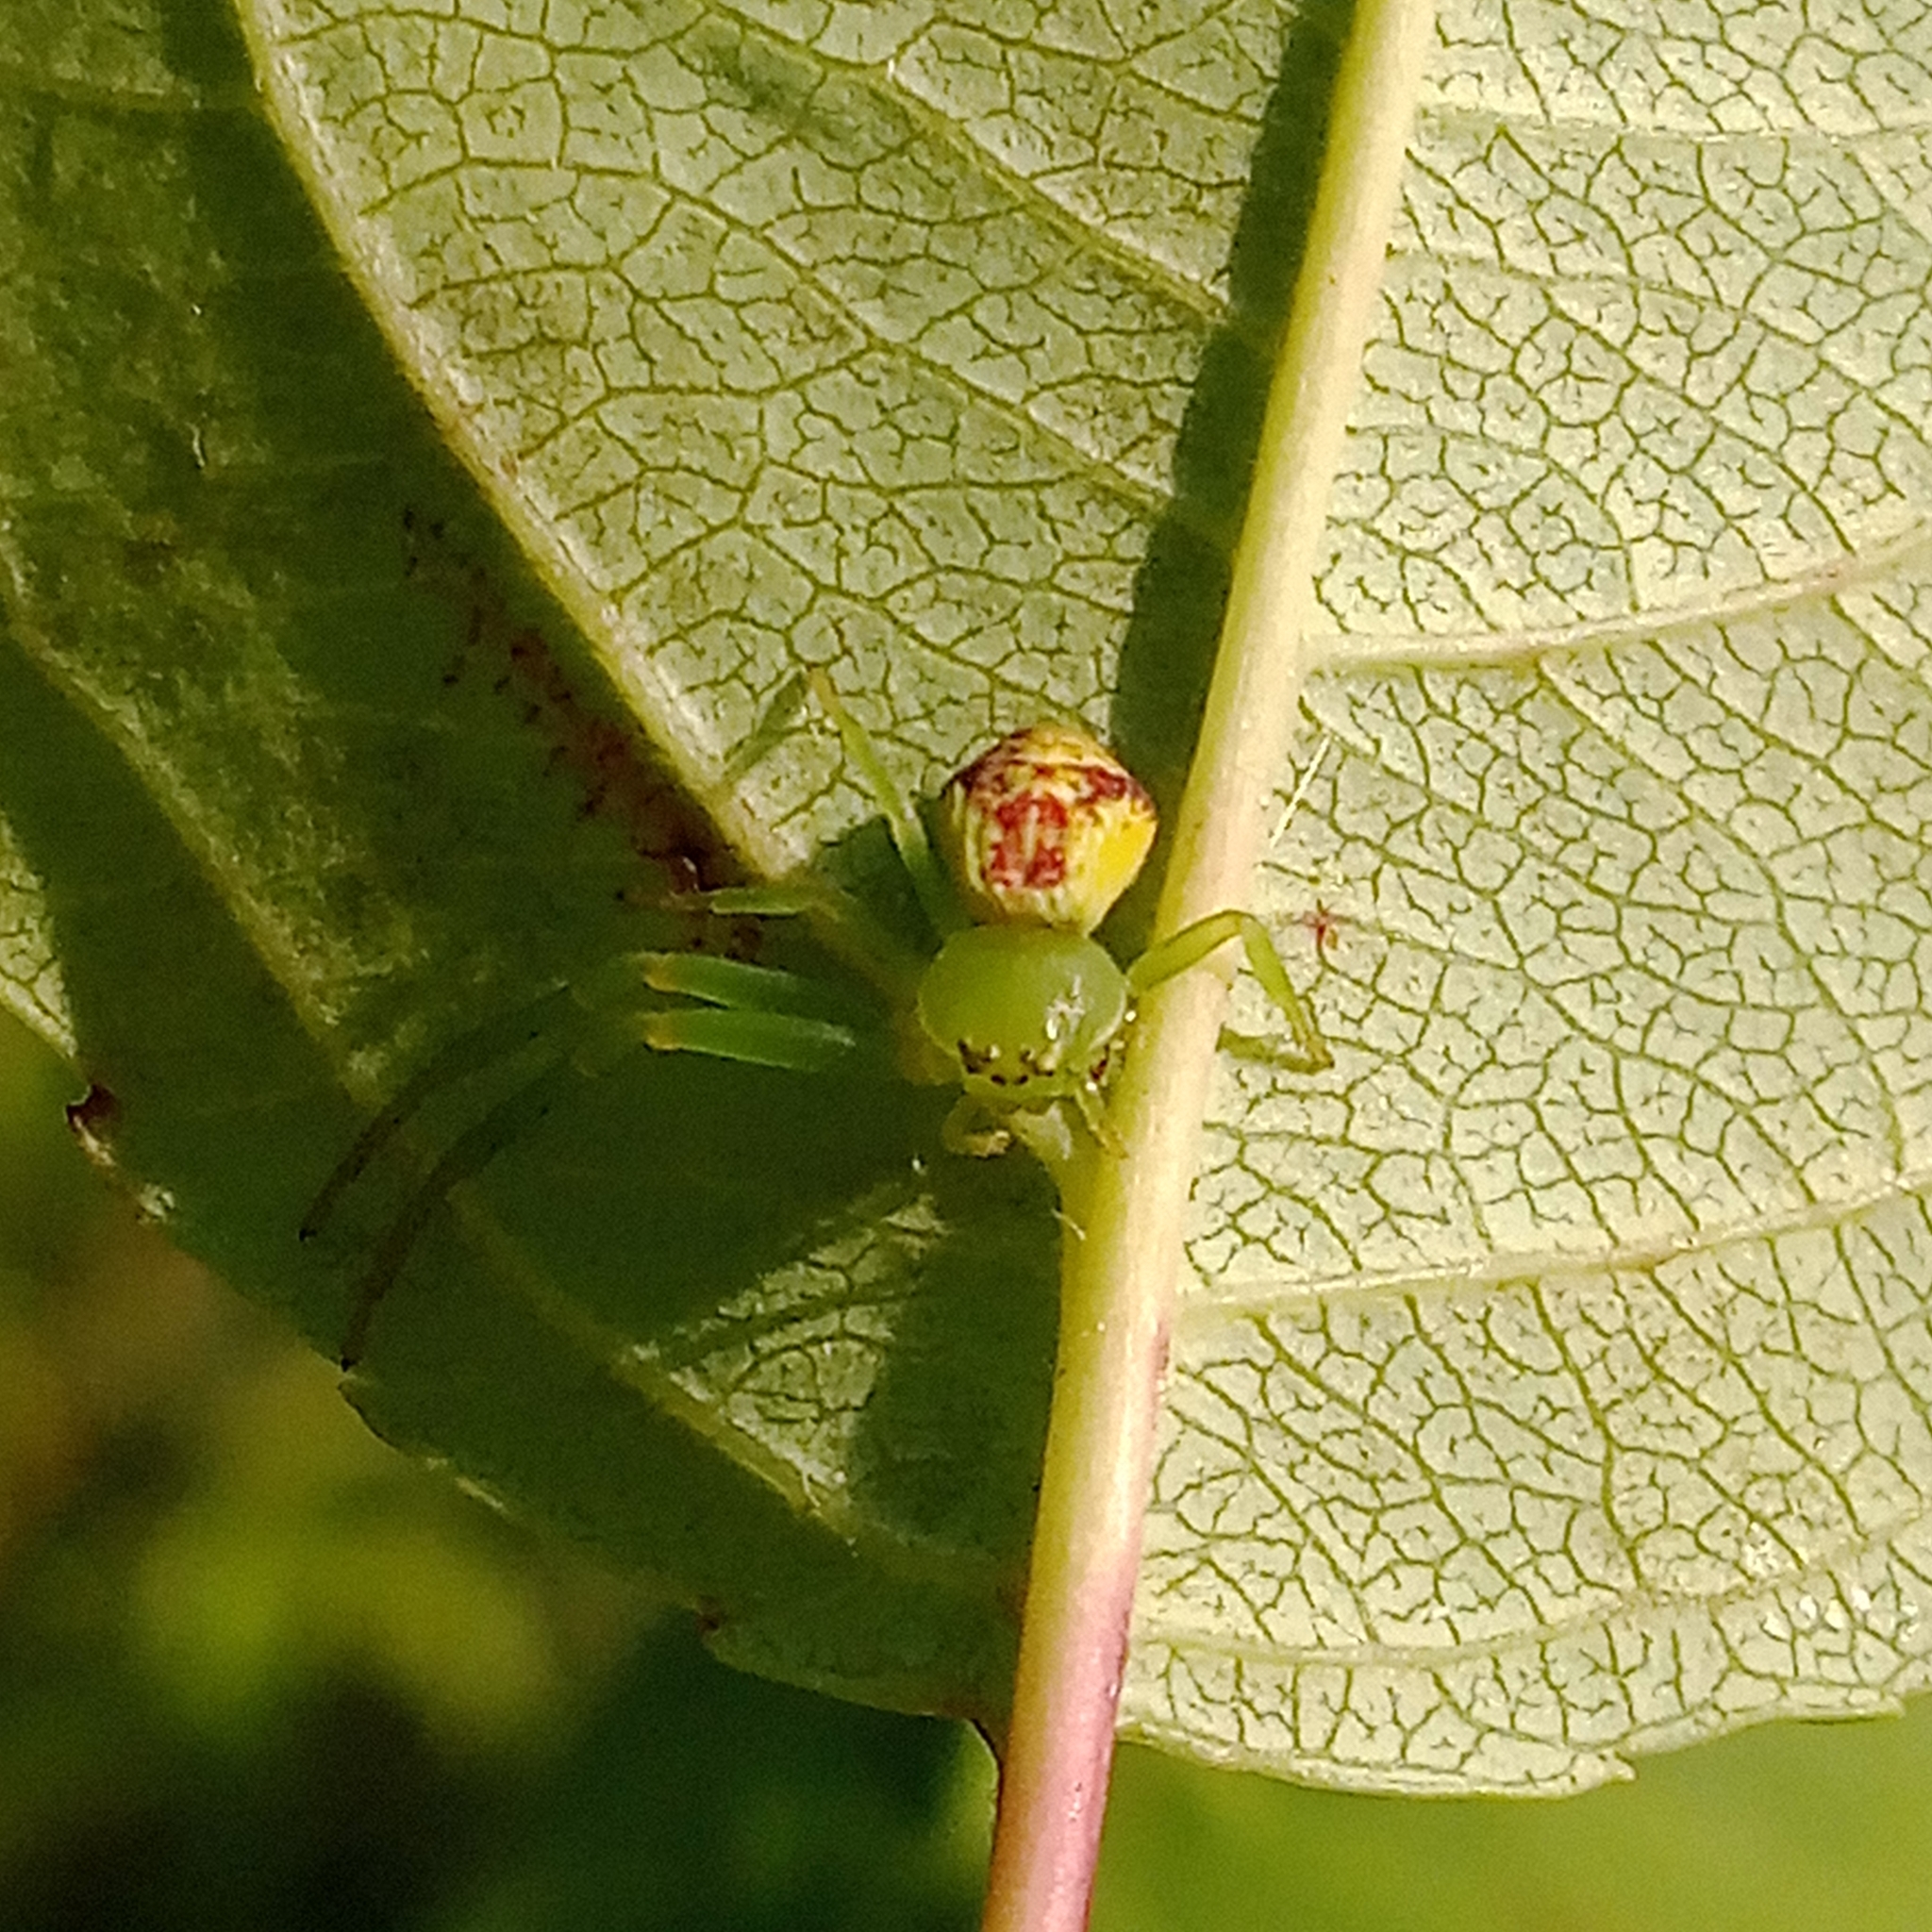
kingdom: Animalia
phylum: Arthropoda
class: Arachnida
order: Araneae
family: Thomisidae
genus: Ebrechtella
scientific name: Ebrechtella tricuspidata
